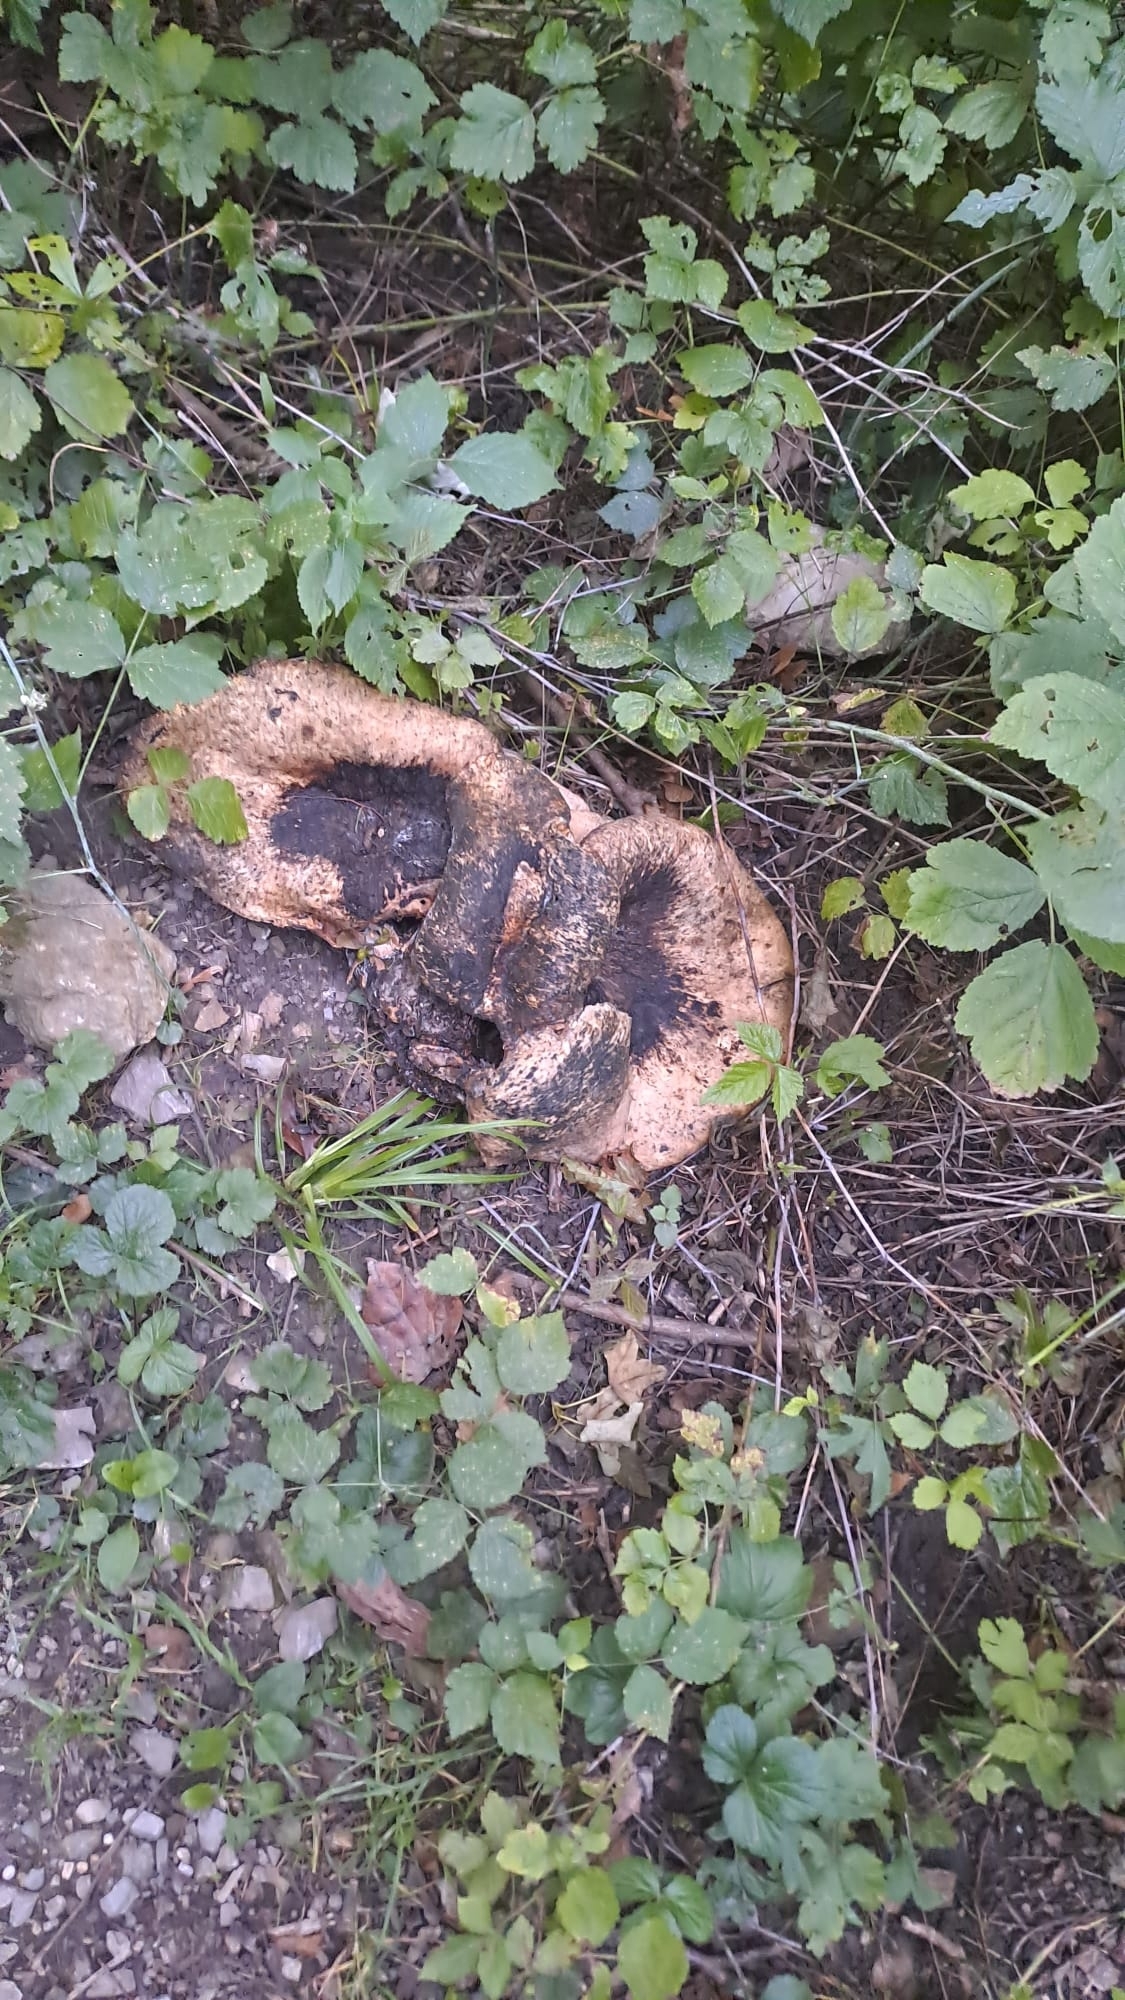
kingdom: Fungi
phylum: Basidiomycota
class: Agaricomycetes
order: Polyporales
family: Polyporaceae
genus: Cerioporus
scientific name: Cerioporus squamosus
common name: Dryad's saddle
